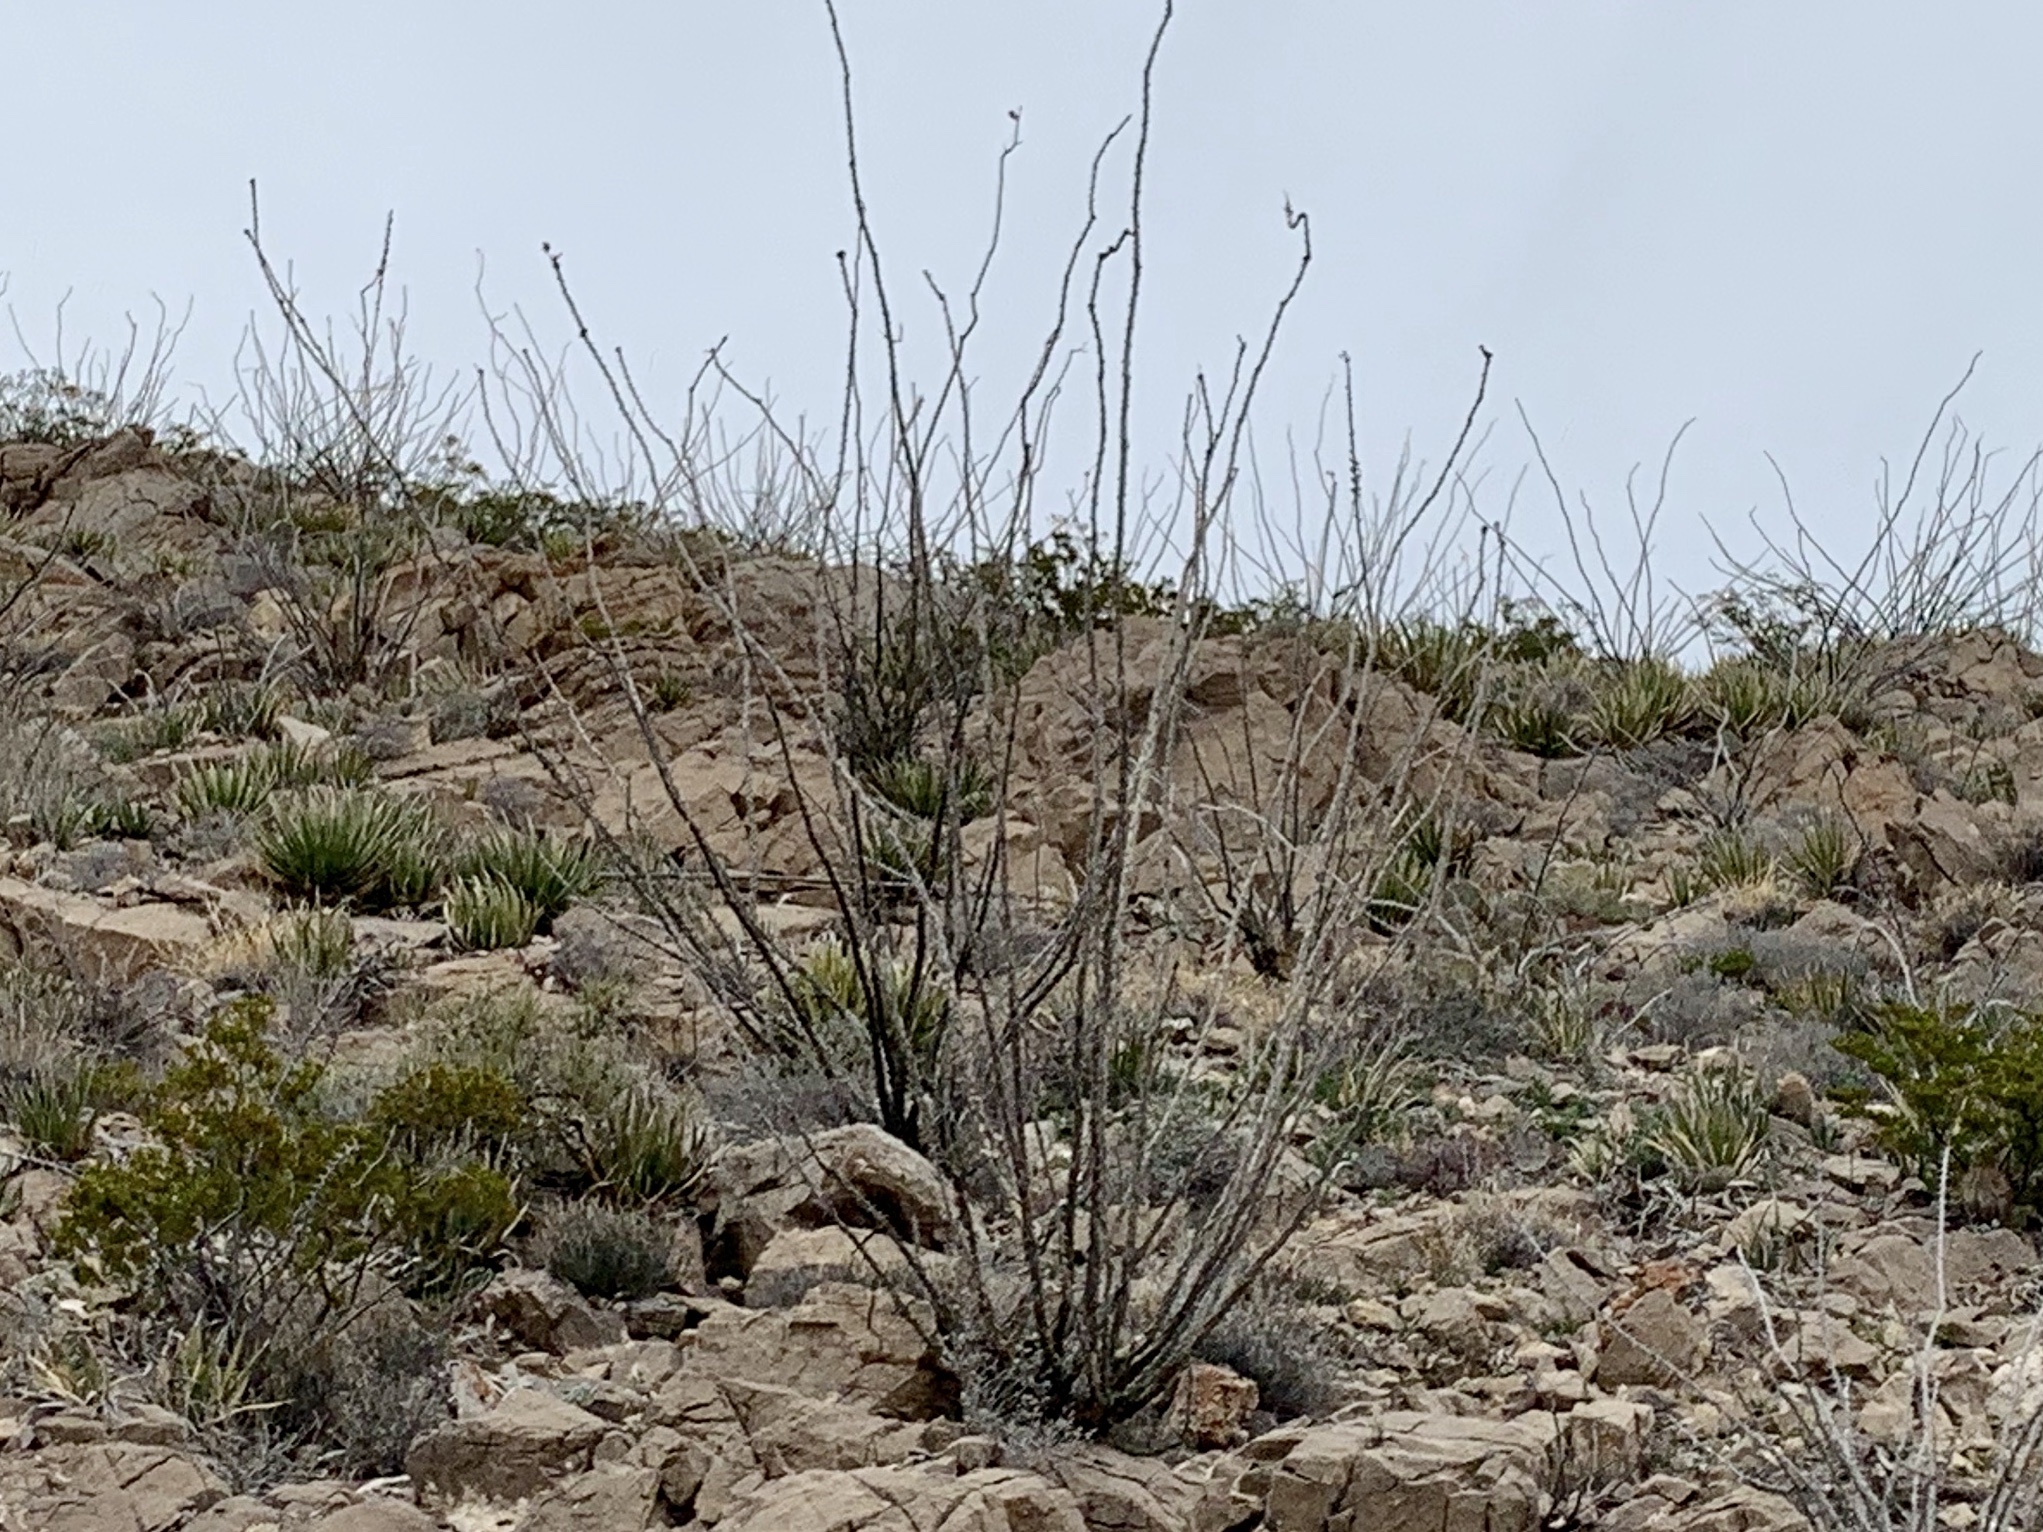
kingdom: Plantae
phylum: Tracheophyta
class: Magnoliopsida
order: Ericales
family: Fouquieriaceae
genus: Fouquieria
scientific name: Fouquieria splendens
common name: Vine-cactus
